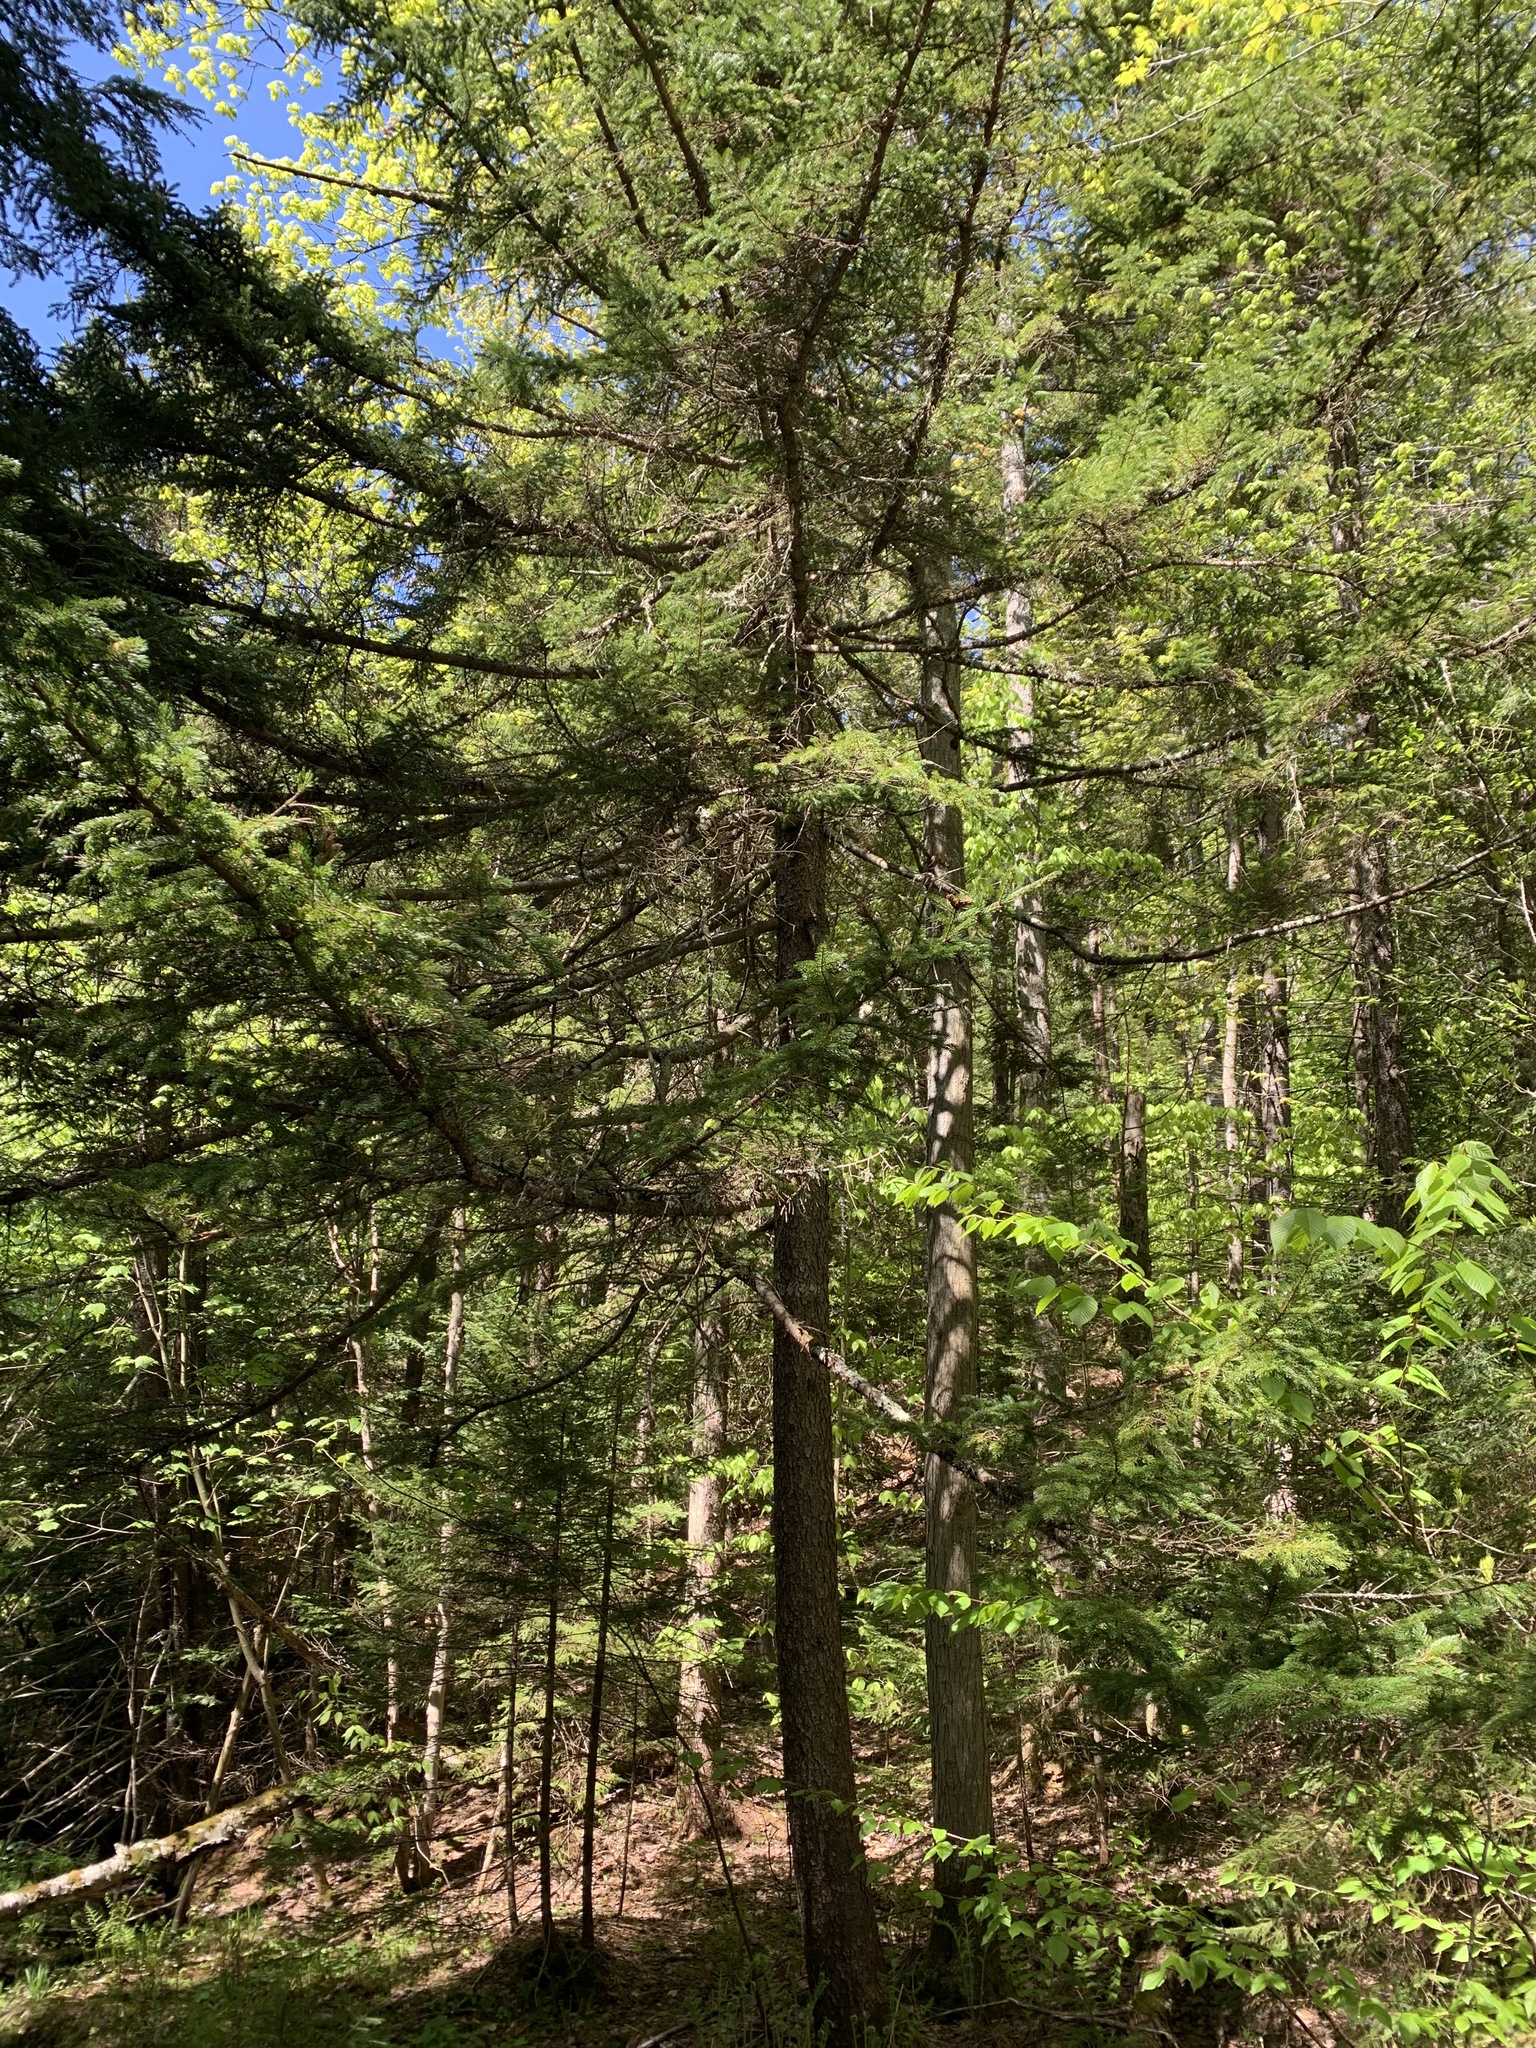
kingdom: Plantae
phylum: Tracheophyta
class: Pinopsida
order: Pinales
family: Pinaceae
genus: Picea
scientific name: Picea rubens
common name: Red spruce
